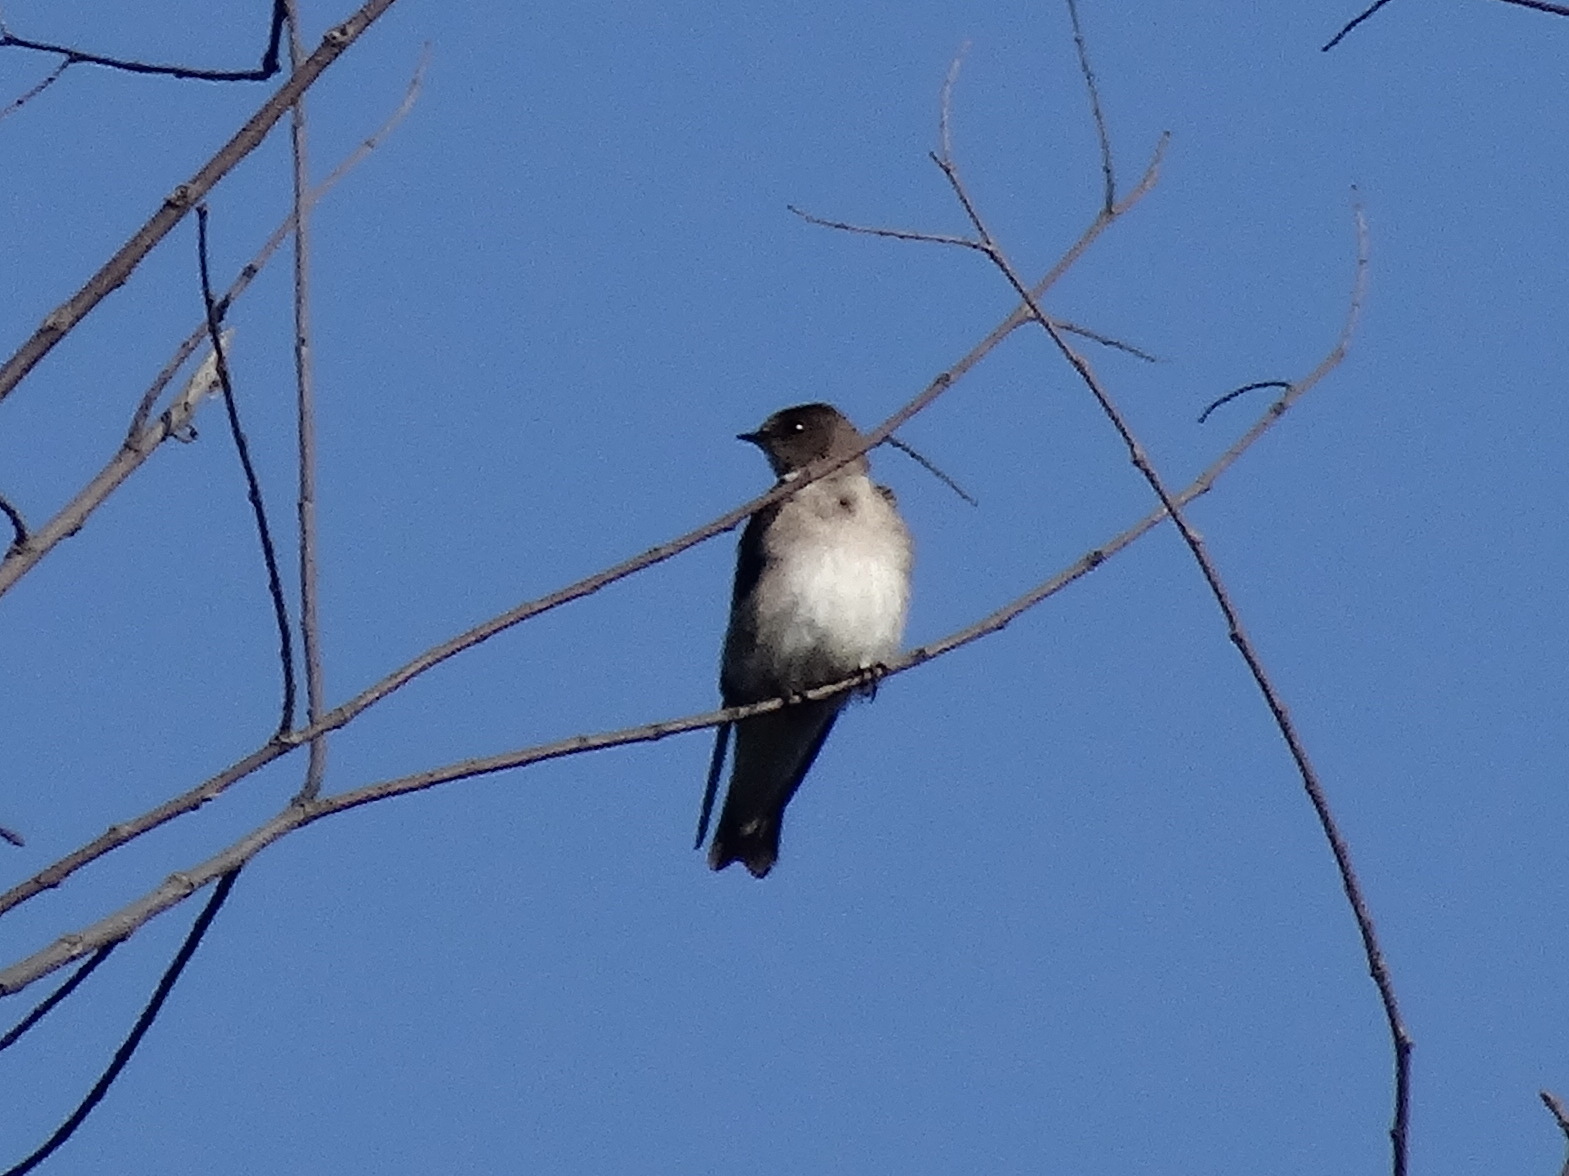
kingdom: Animalia
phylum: Chordata
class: Aves
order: Passeriformes
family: Hirundinidae
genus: Stelgidopteryx
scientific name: Stelgidopteryx serripennis
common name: Northern rough-winged swallow
